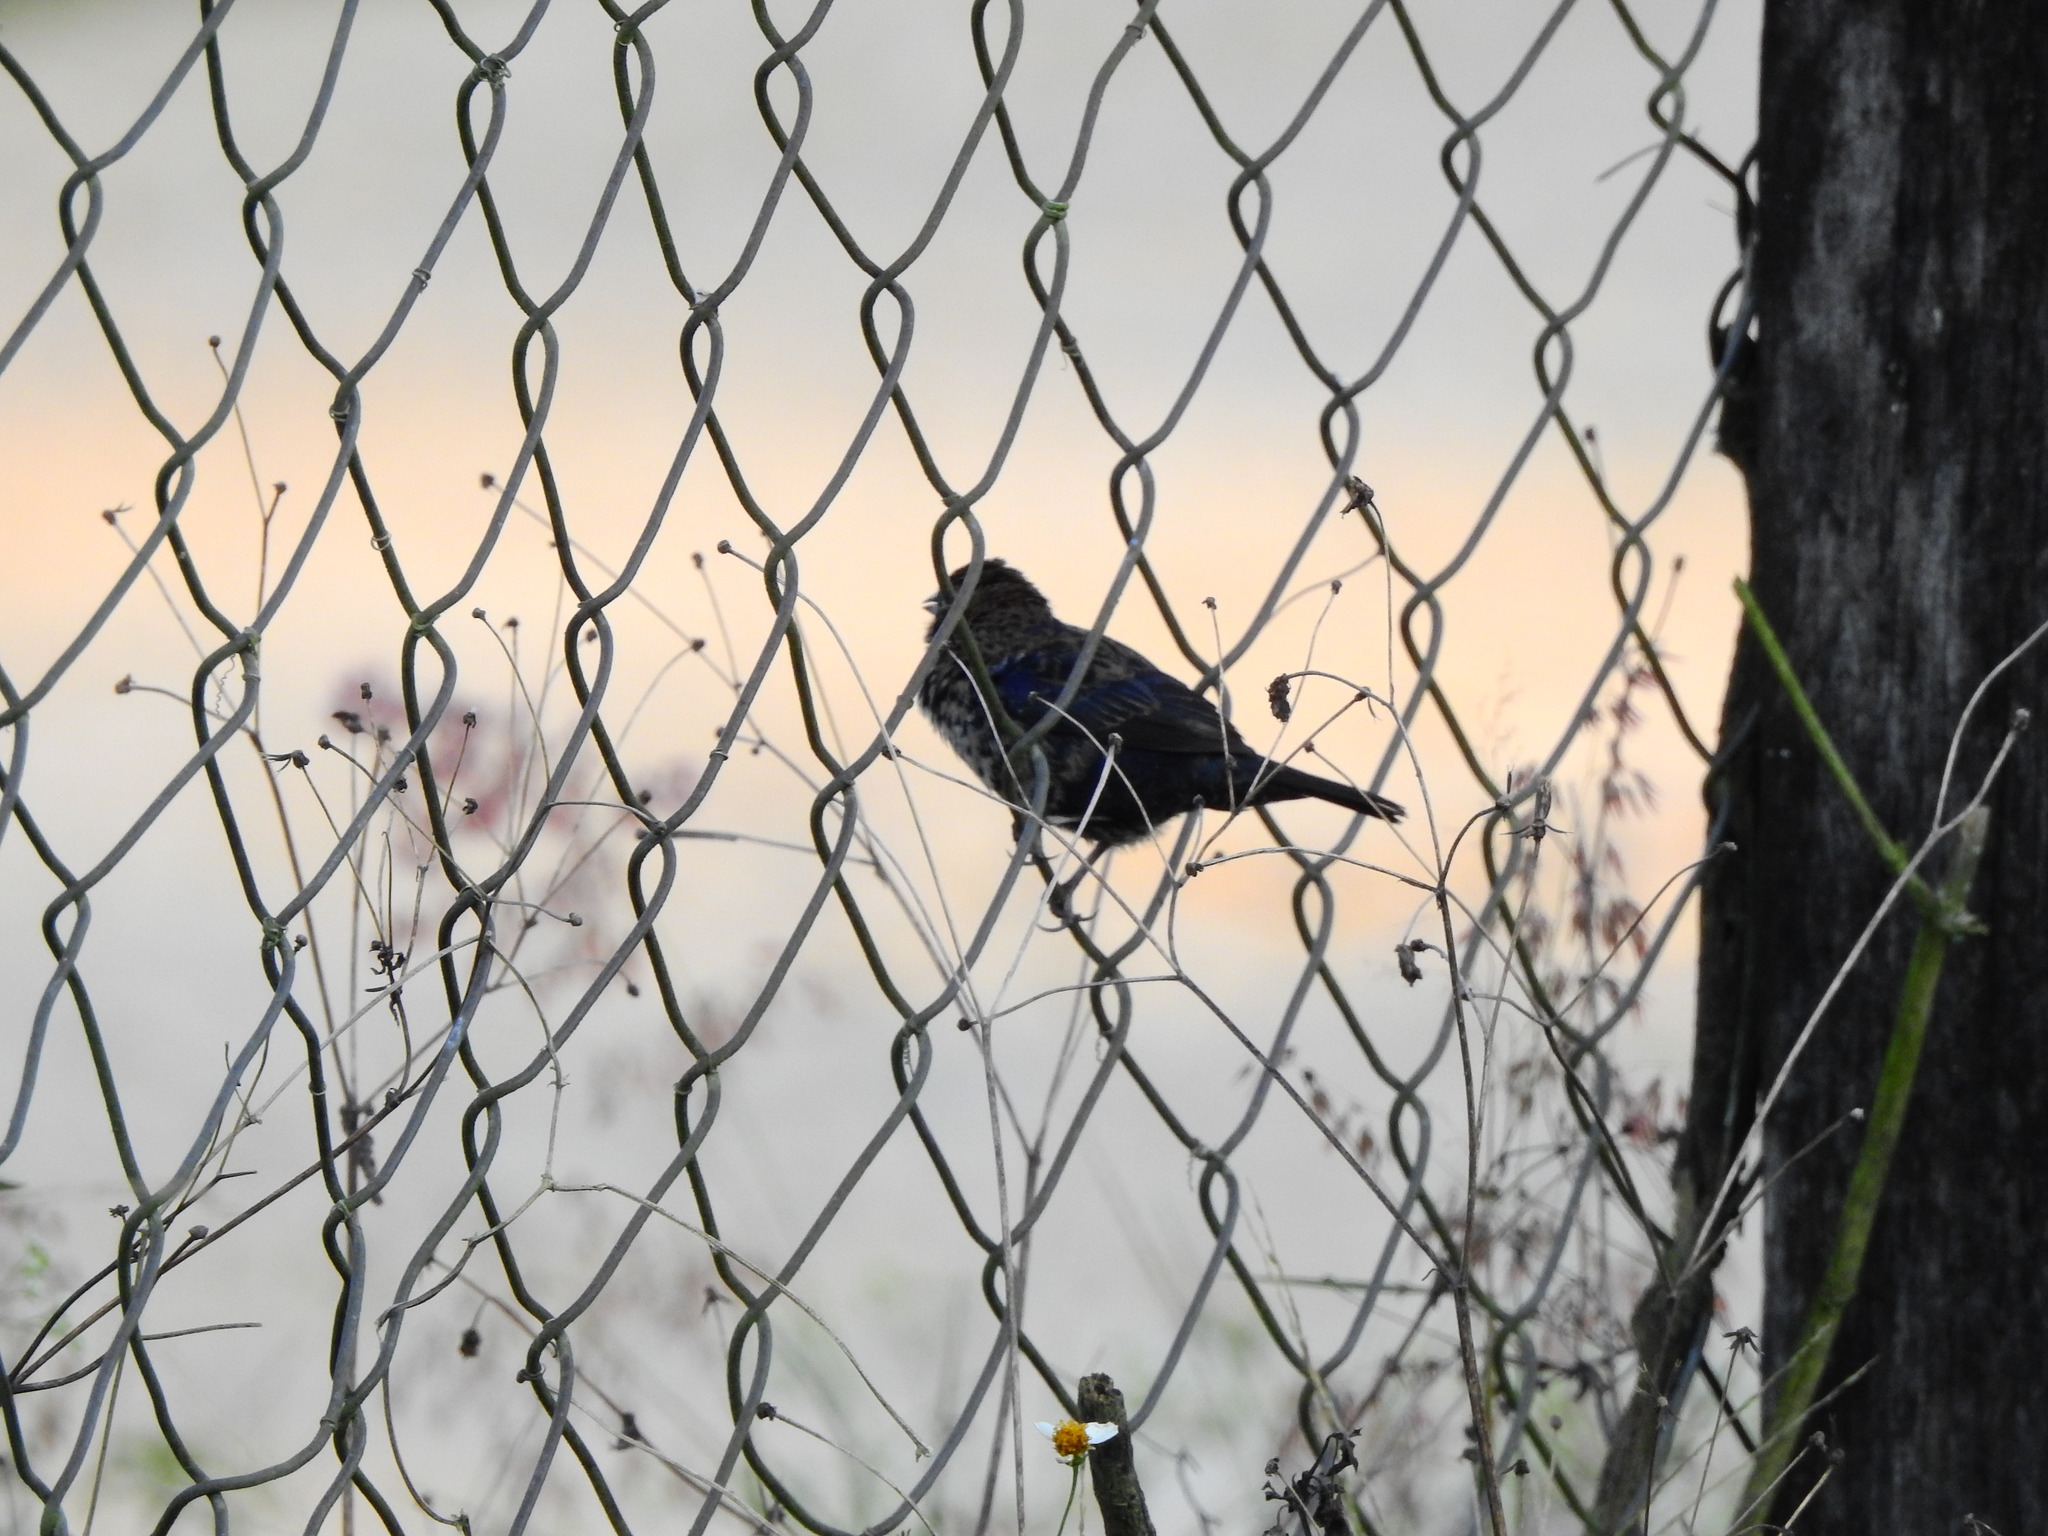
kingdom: Animalia
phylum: Chordata
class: Aves
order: Passeriformes
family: Thraupidae
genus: Volatinia
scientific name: Volatinia jacarina
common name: Blue-black grassquit
